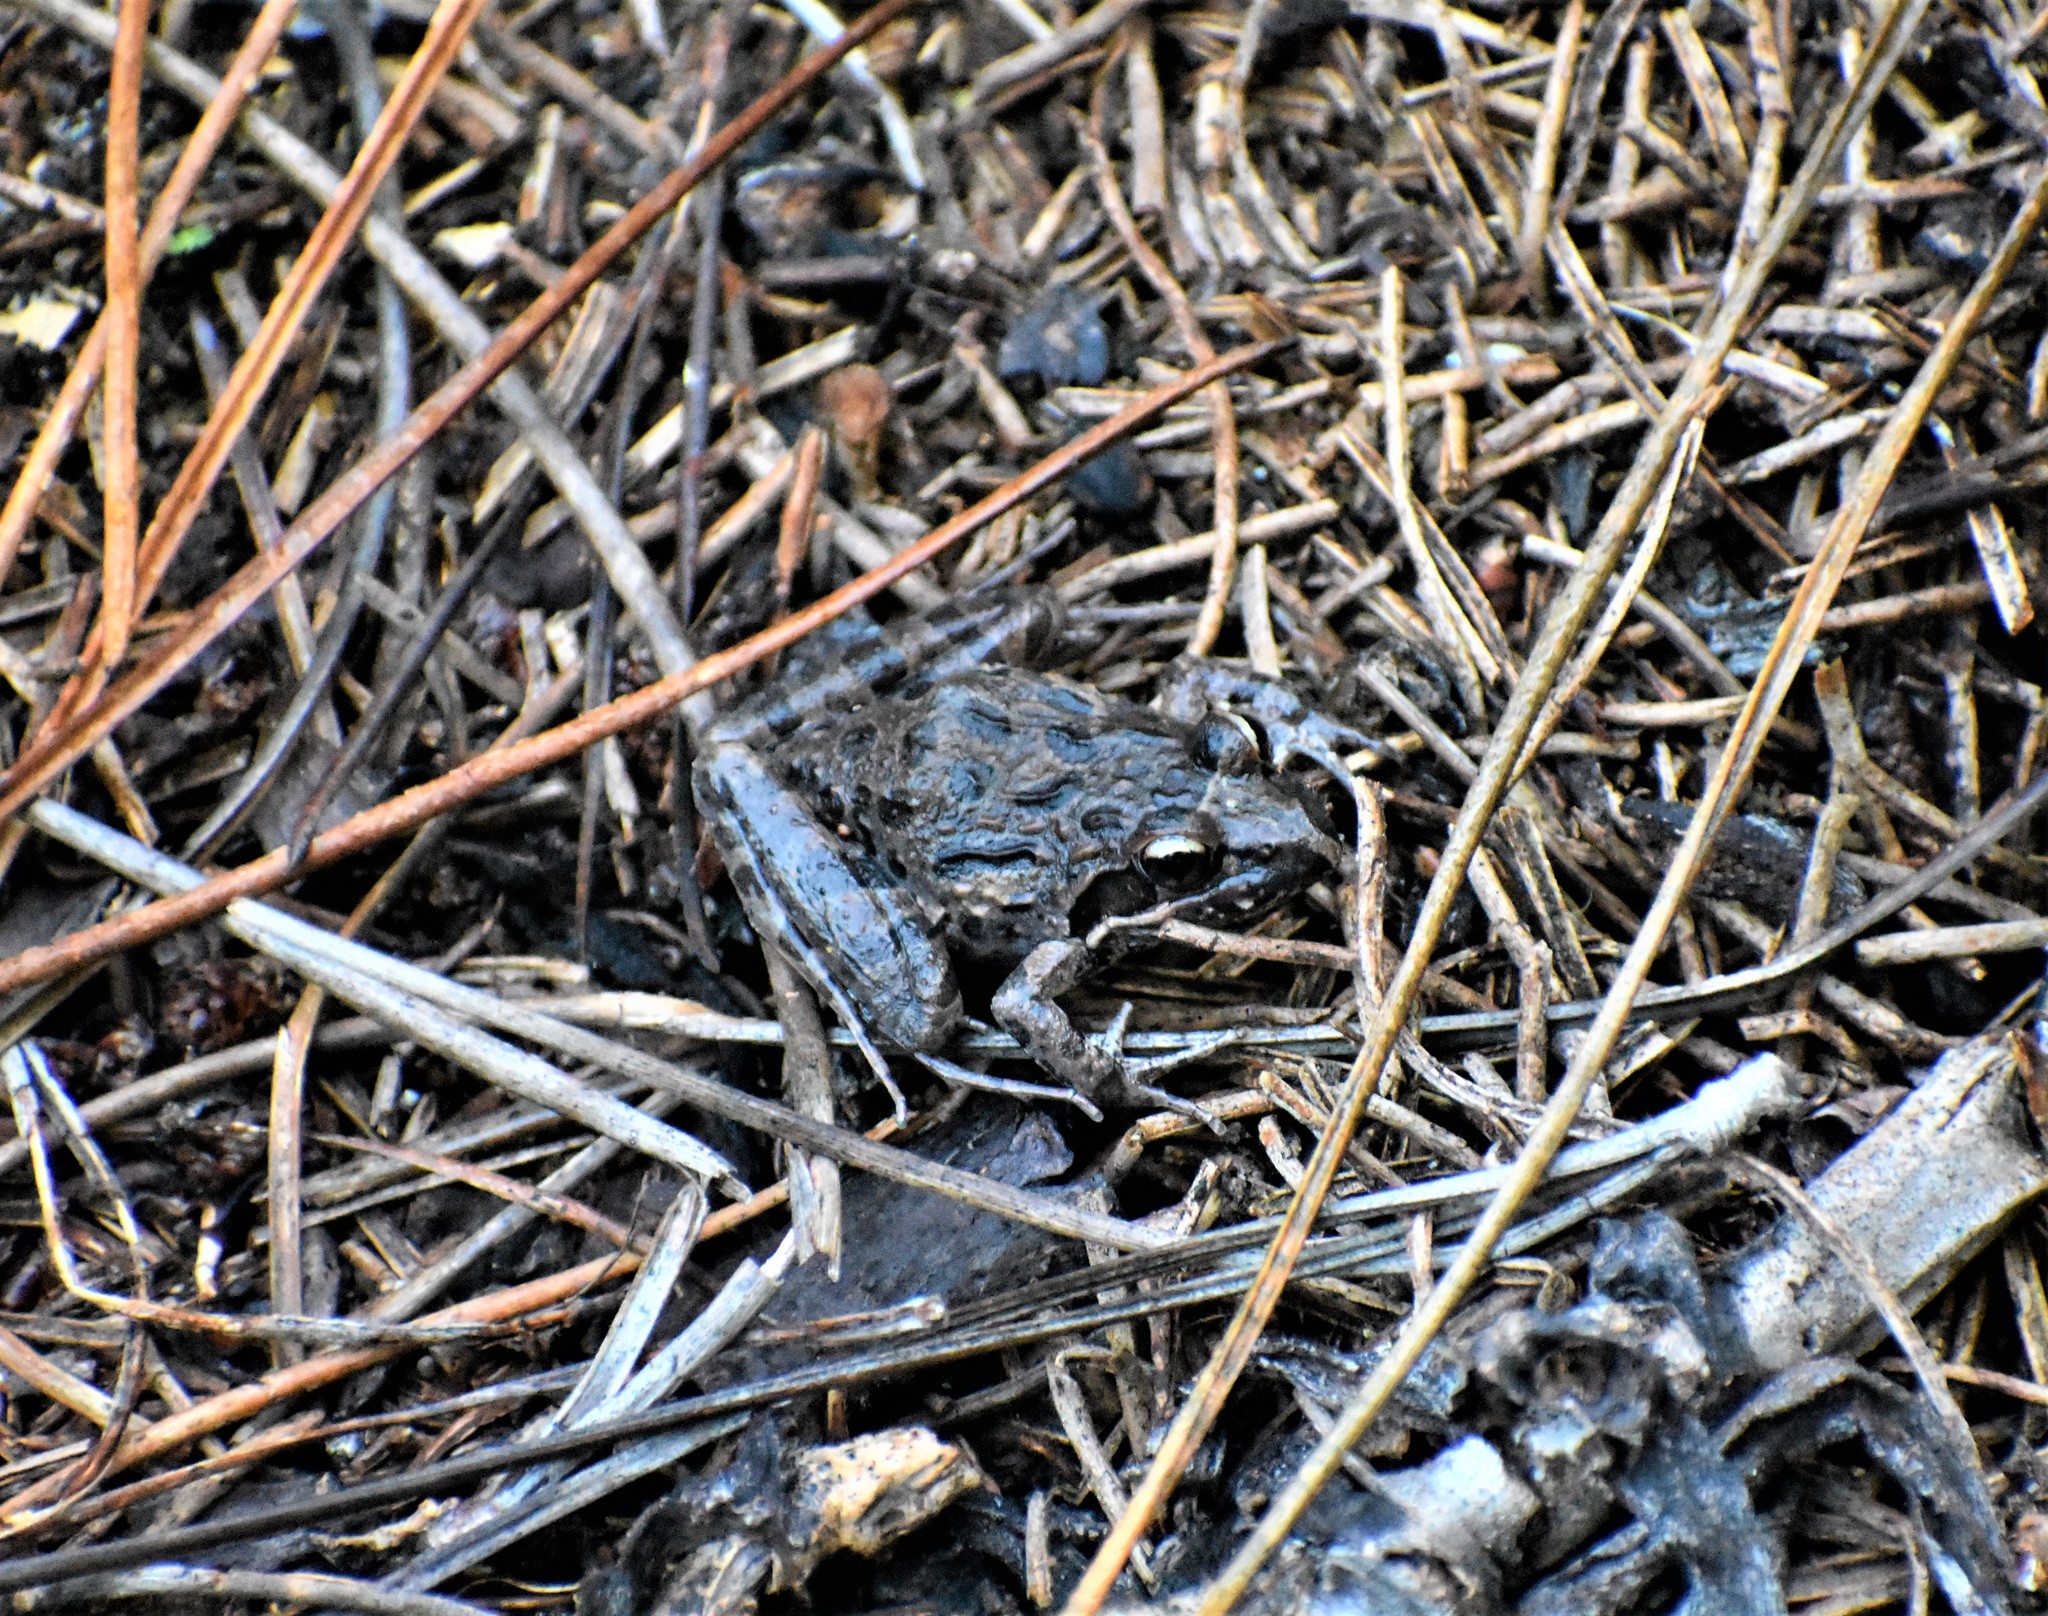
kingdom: Animalia
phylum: Chordata
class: Amphibia
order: Anura
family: Pyxicephalidae
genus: Strongylopus
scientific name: Strongylopus grayii
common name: Gray's stream frog
